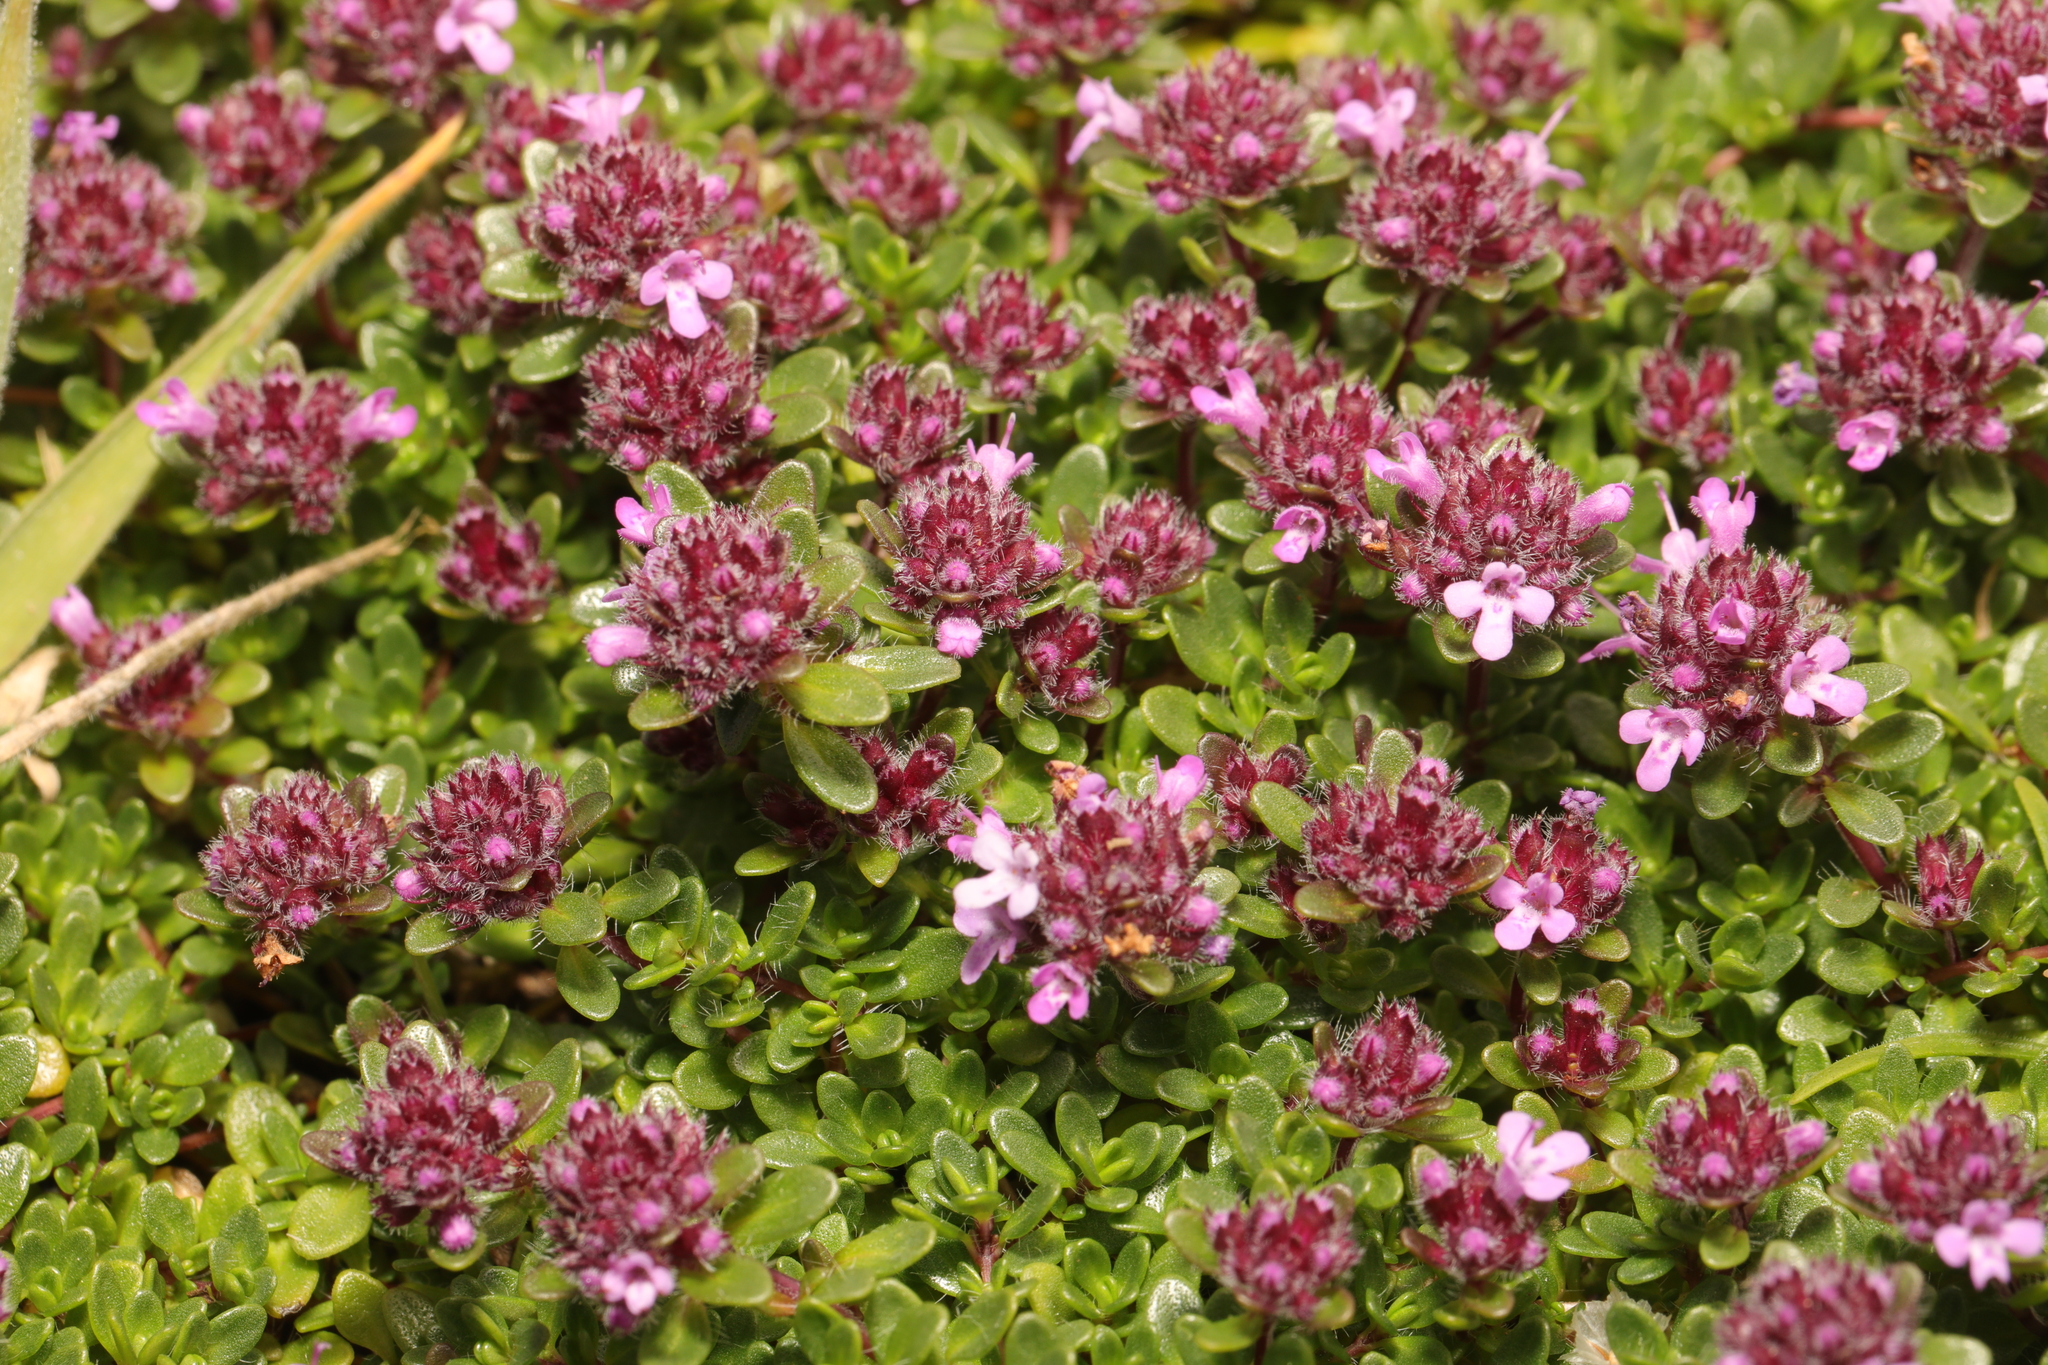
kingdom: Plantae
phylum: Tracheophyta
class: Magnoliopsida
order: Lamiales
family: Lamiaceae
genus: Thymus
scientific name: Thymus praecox
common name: Wild thyme
